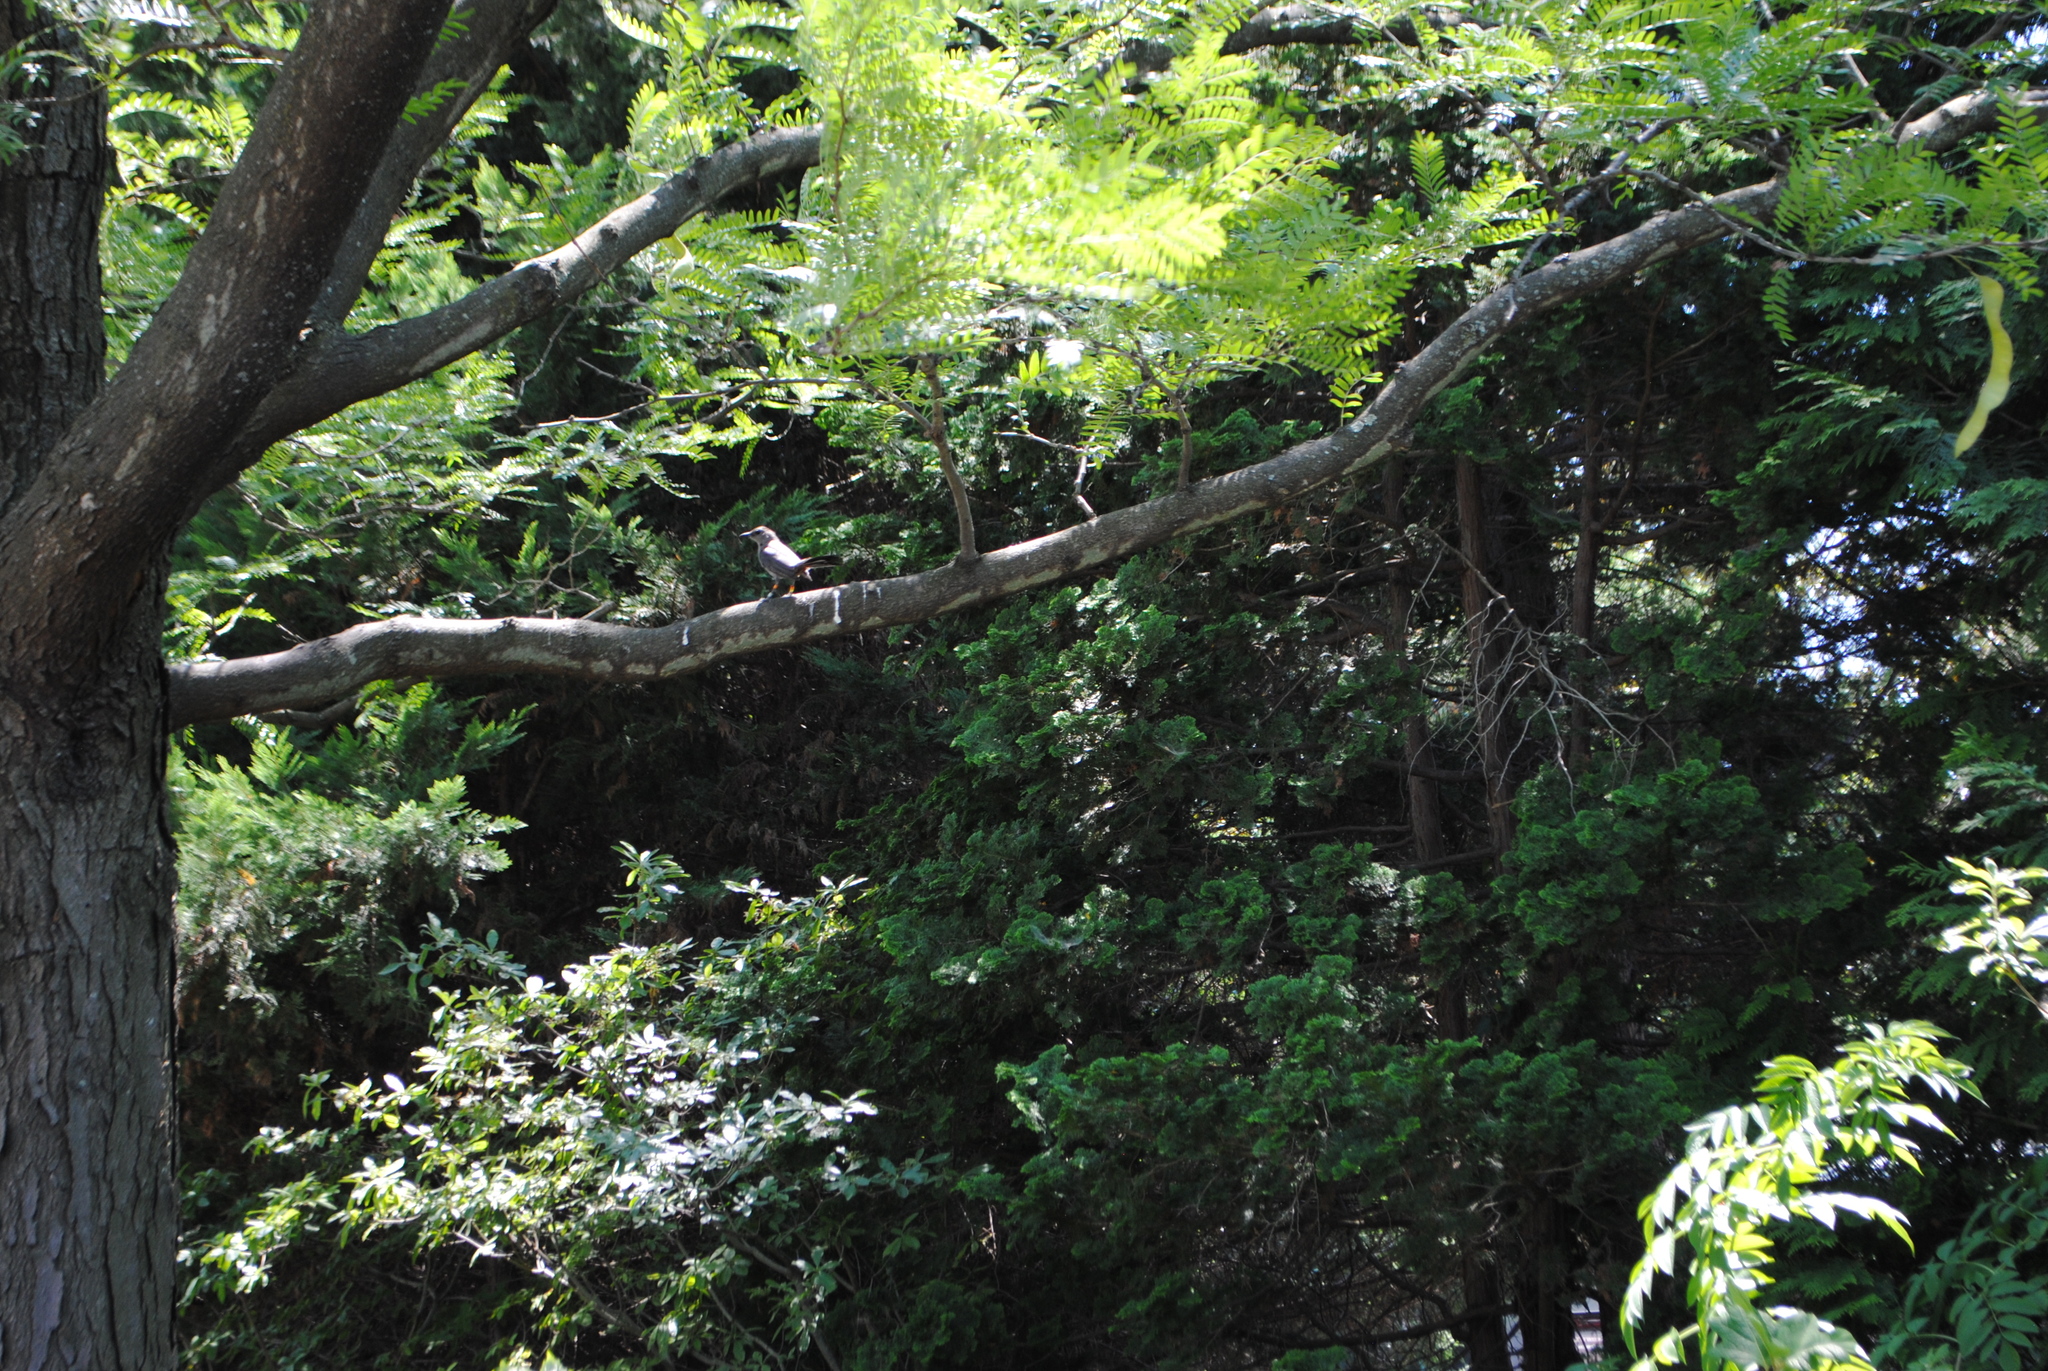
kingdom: Animalia
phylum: Chordata
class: Aves
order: Passeriformes
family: Mimidae
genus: Dumetella
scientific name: Dumetella carolinensis
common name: Gray catbird
